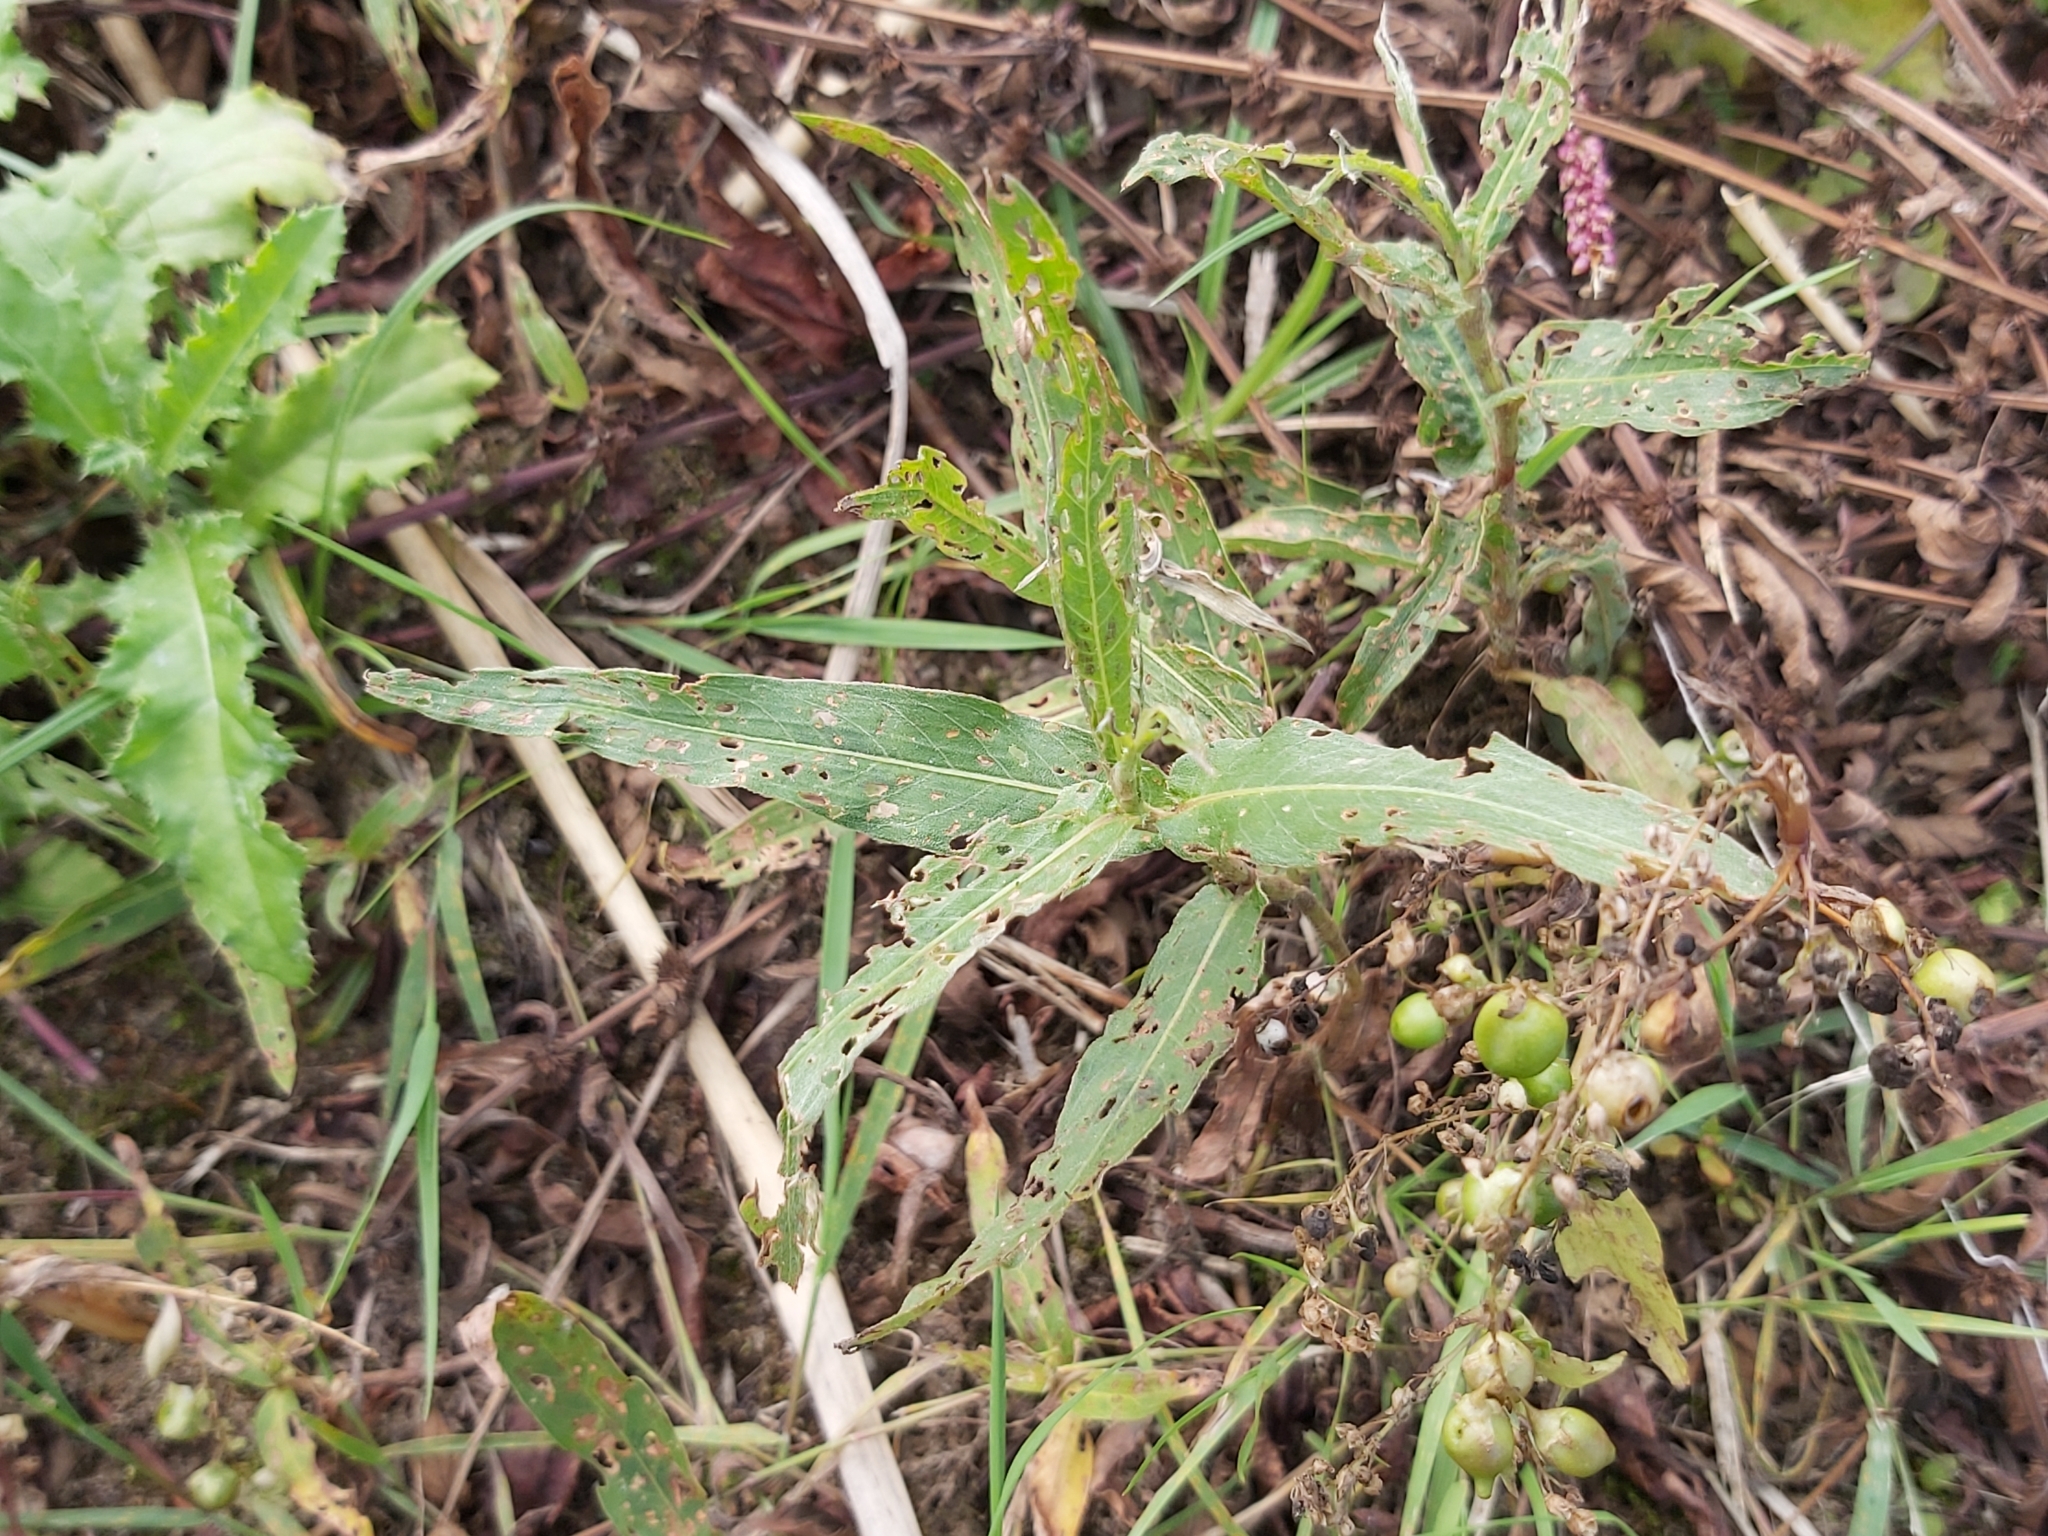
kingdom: Animalia
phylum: Arthropoda
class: Insecta
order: Coleoptera
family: Curculionidae
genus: Gymnetron
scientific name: Gymnetron villosulum
